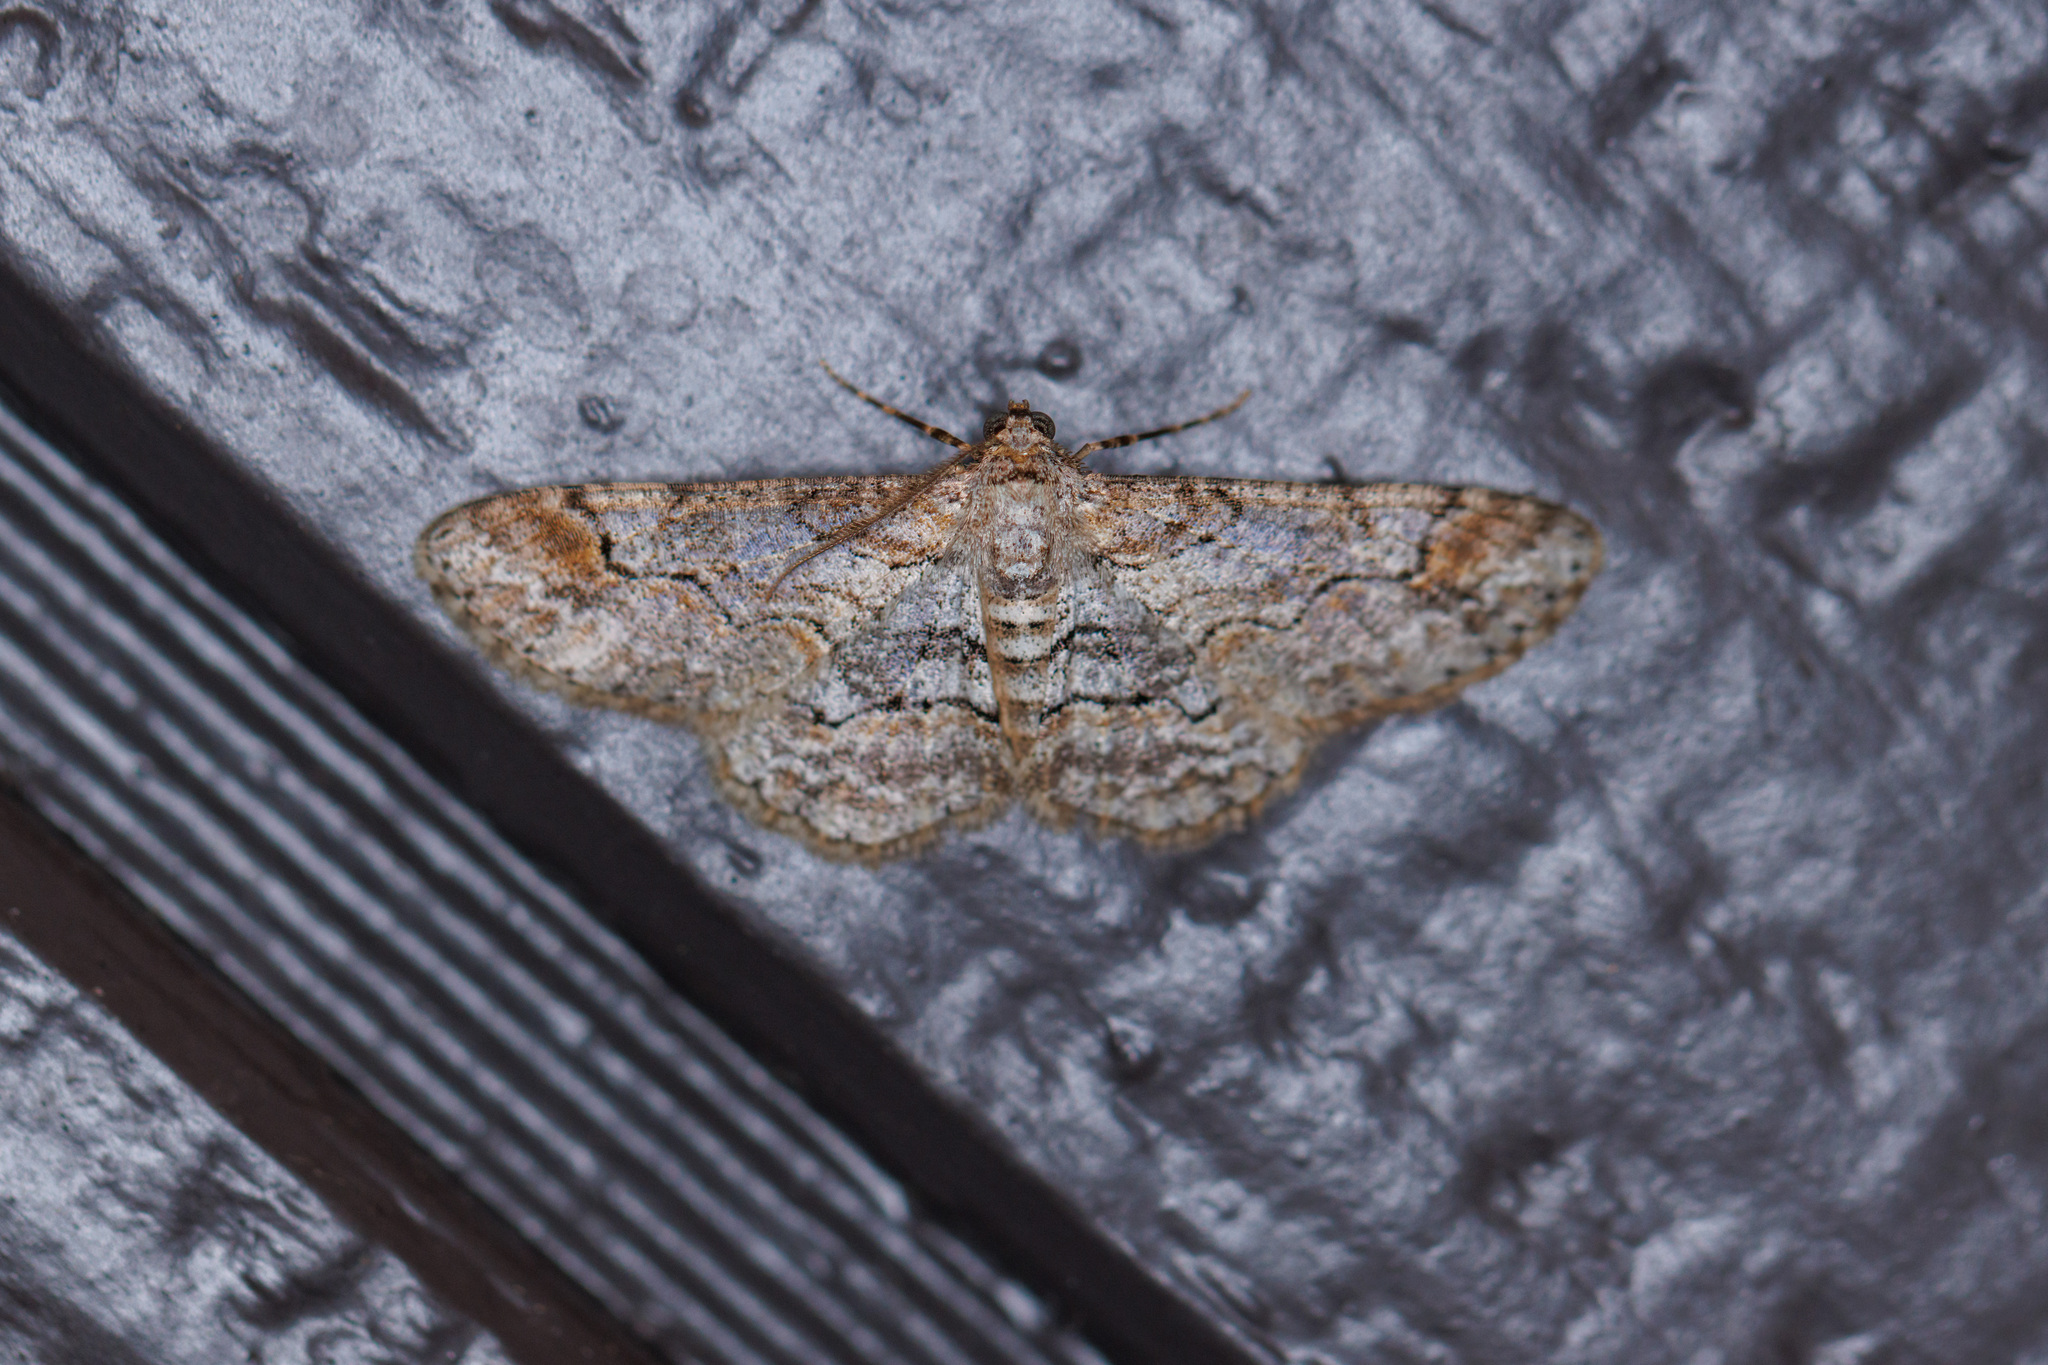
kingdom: Animalia
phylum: Arthropoda
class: Insecta
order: Lepidoptera
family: Geometridae
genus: Iridopsis
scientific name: Iridopsis emasculatum
